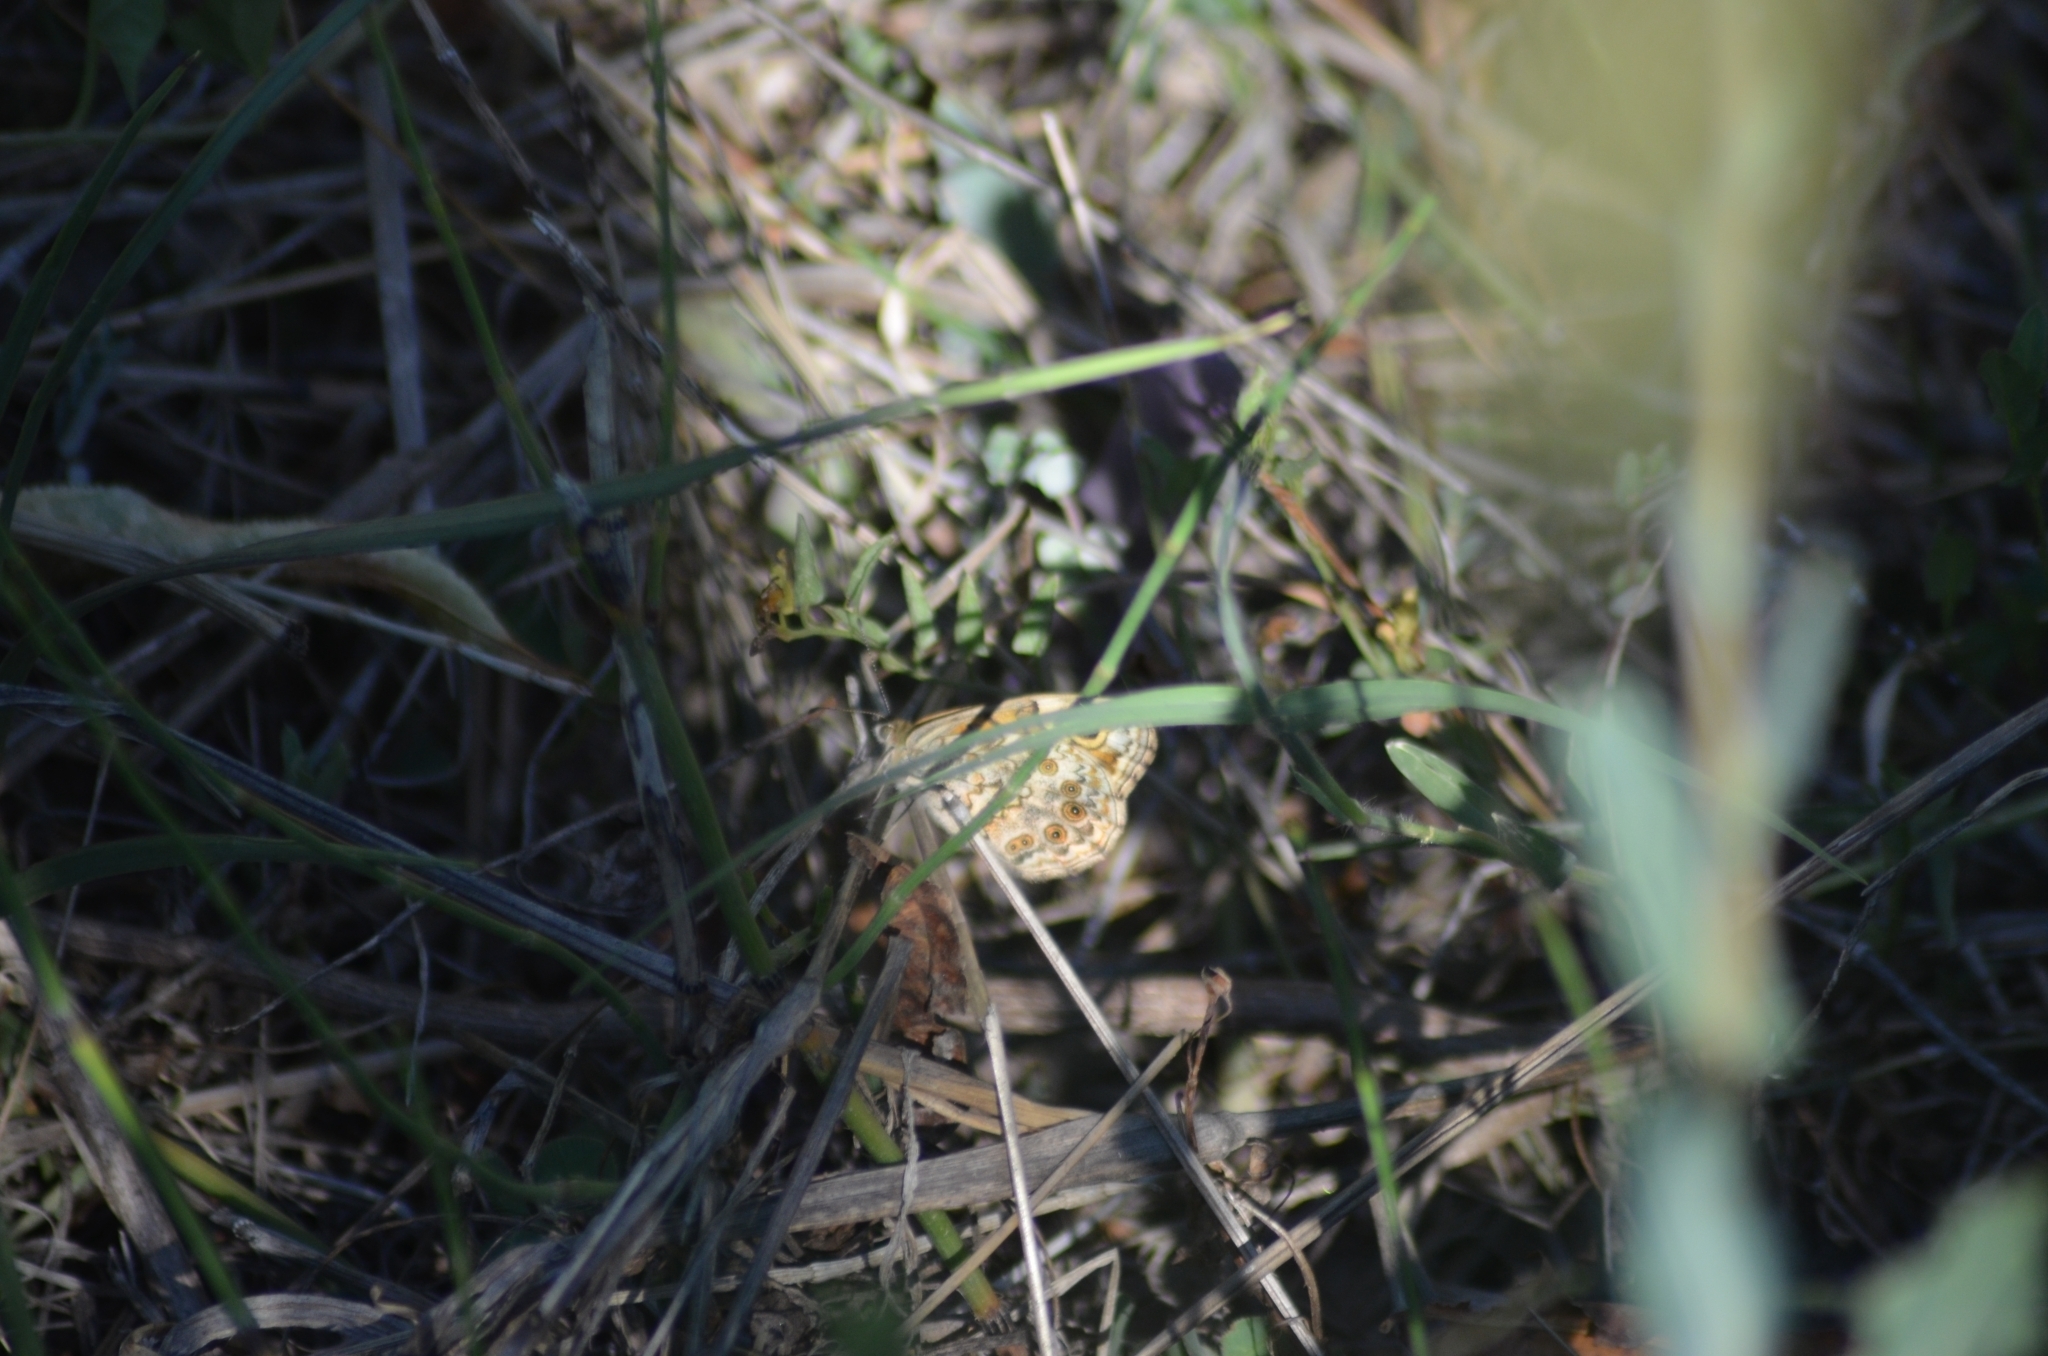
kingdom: Animalia
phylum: Arthropoda
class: Insecta
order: Lepidoptera
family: Nymphalidae
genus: Pararge
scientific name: Pararge Lasiommata megera
